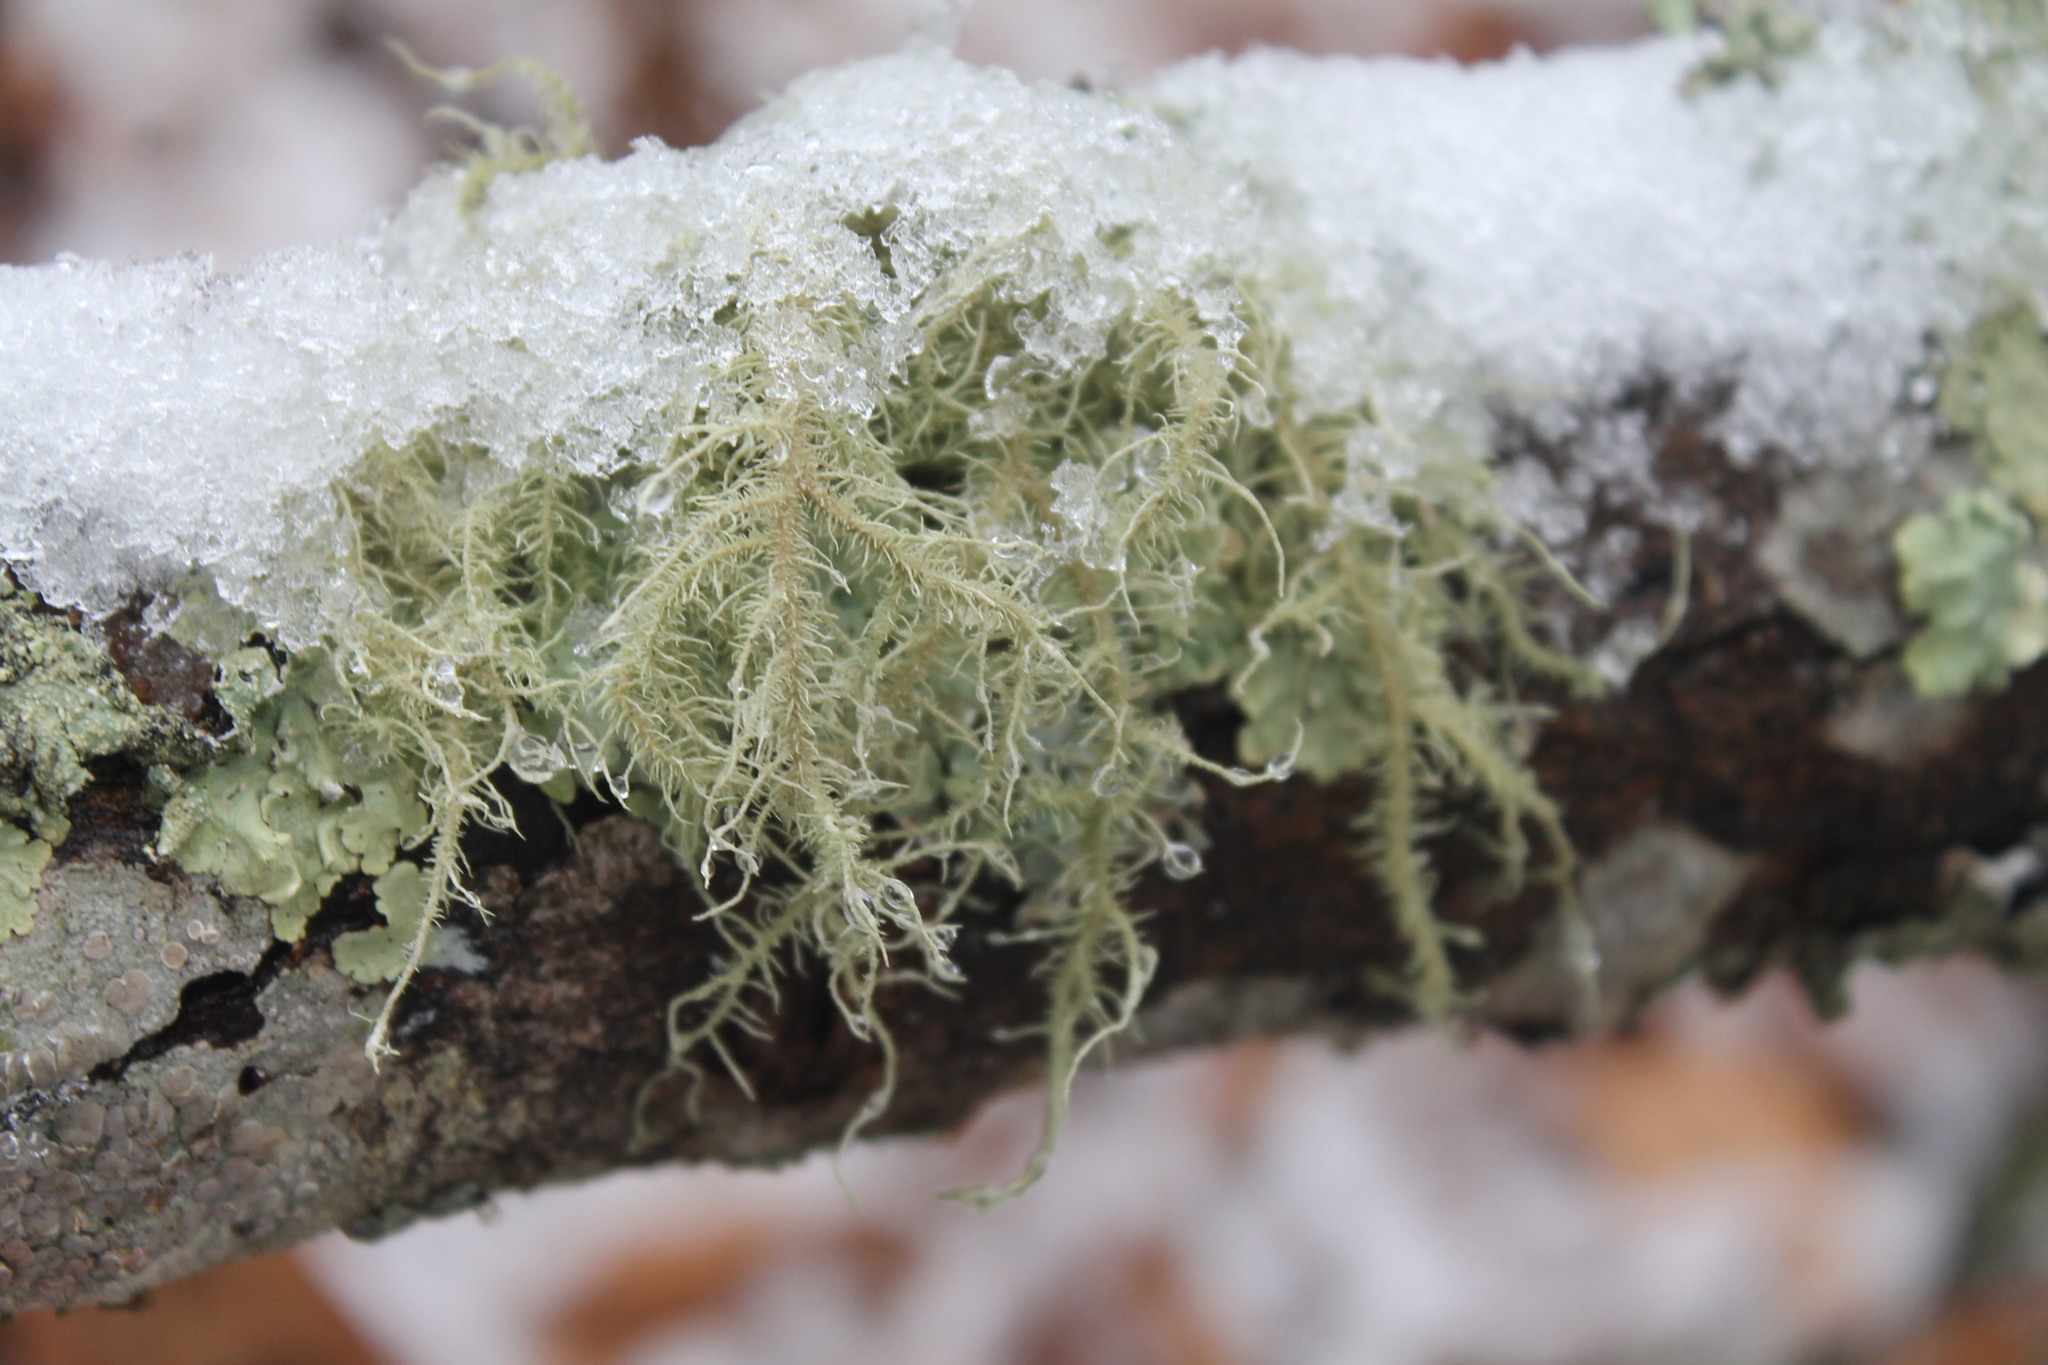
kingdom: Fungi
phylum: Ascomycota
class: Lecanoromycetes
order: Lecanorales
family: Parmeliaceae
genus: Usnea
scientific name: Usnea hirta
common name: Bristly beard lichen
